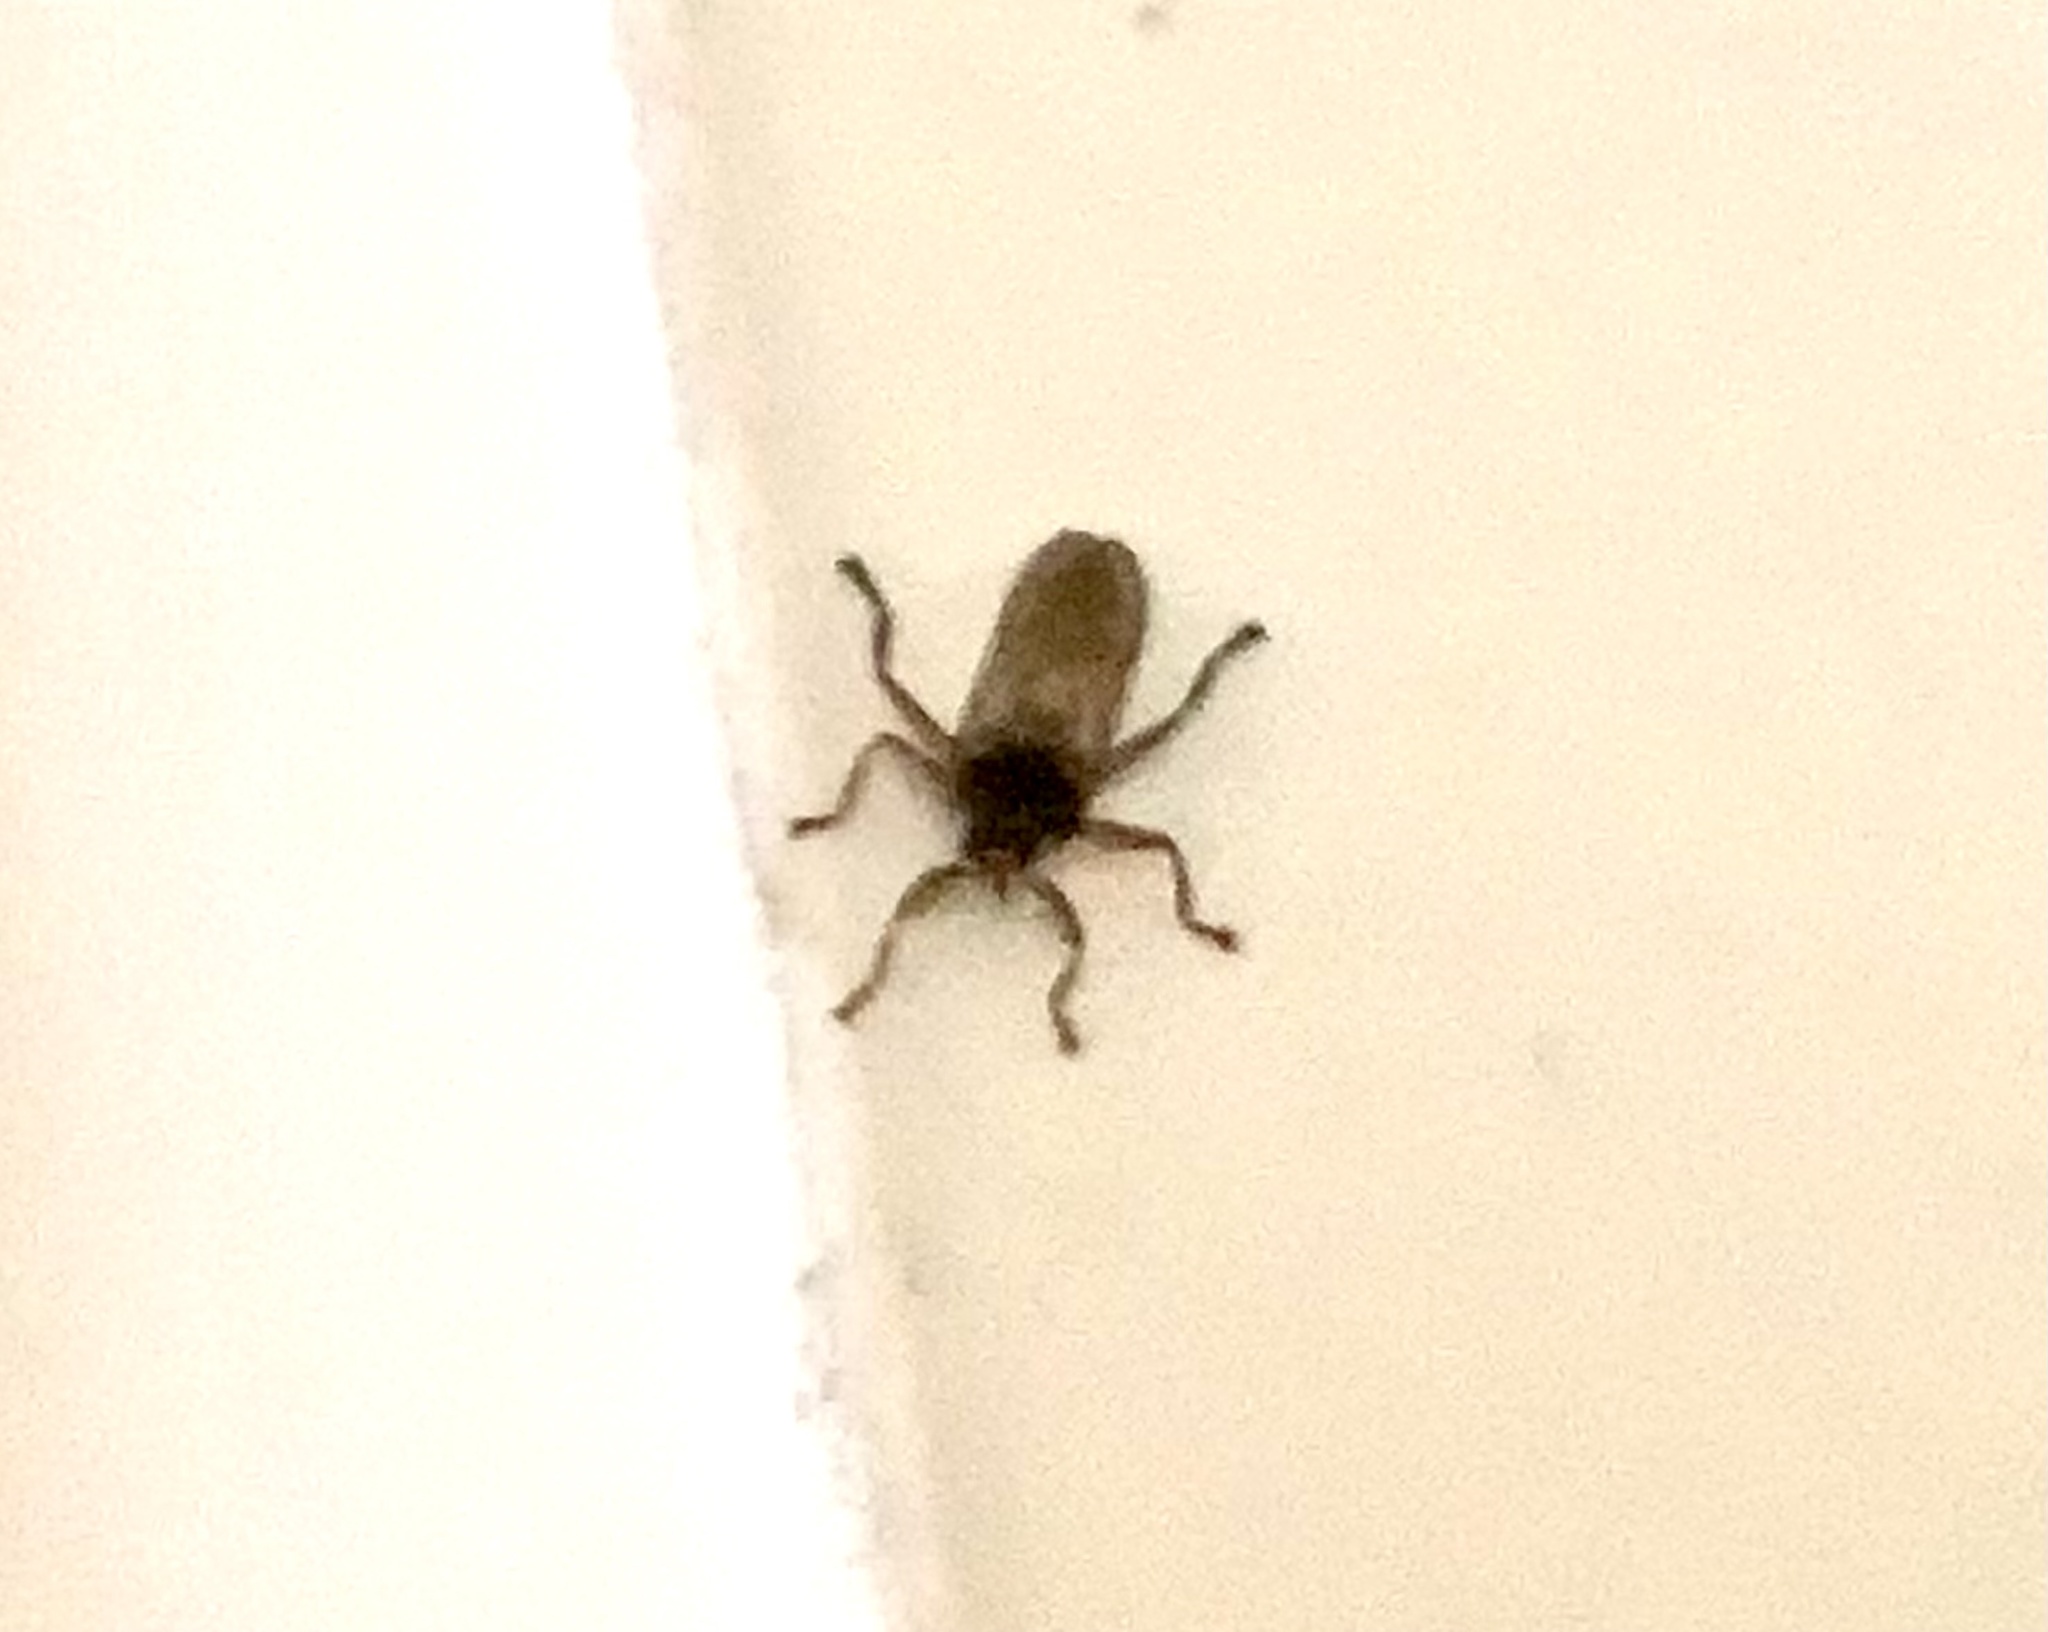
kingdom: Animalia
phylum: Arthropoda
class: Insecta
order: Diptera
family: Hippoboscidae
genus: Lipoptena
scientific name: Lipoptena cervi
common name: Deer ked
